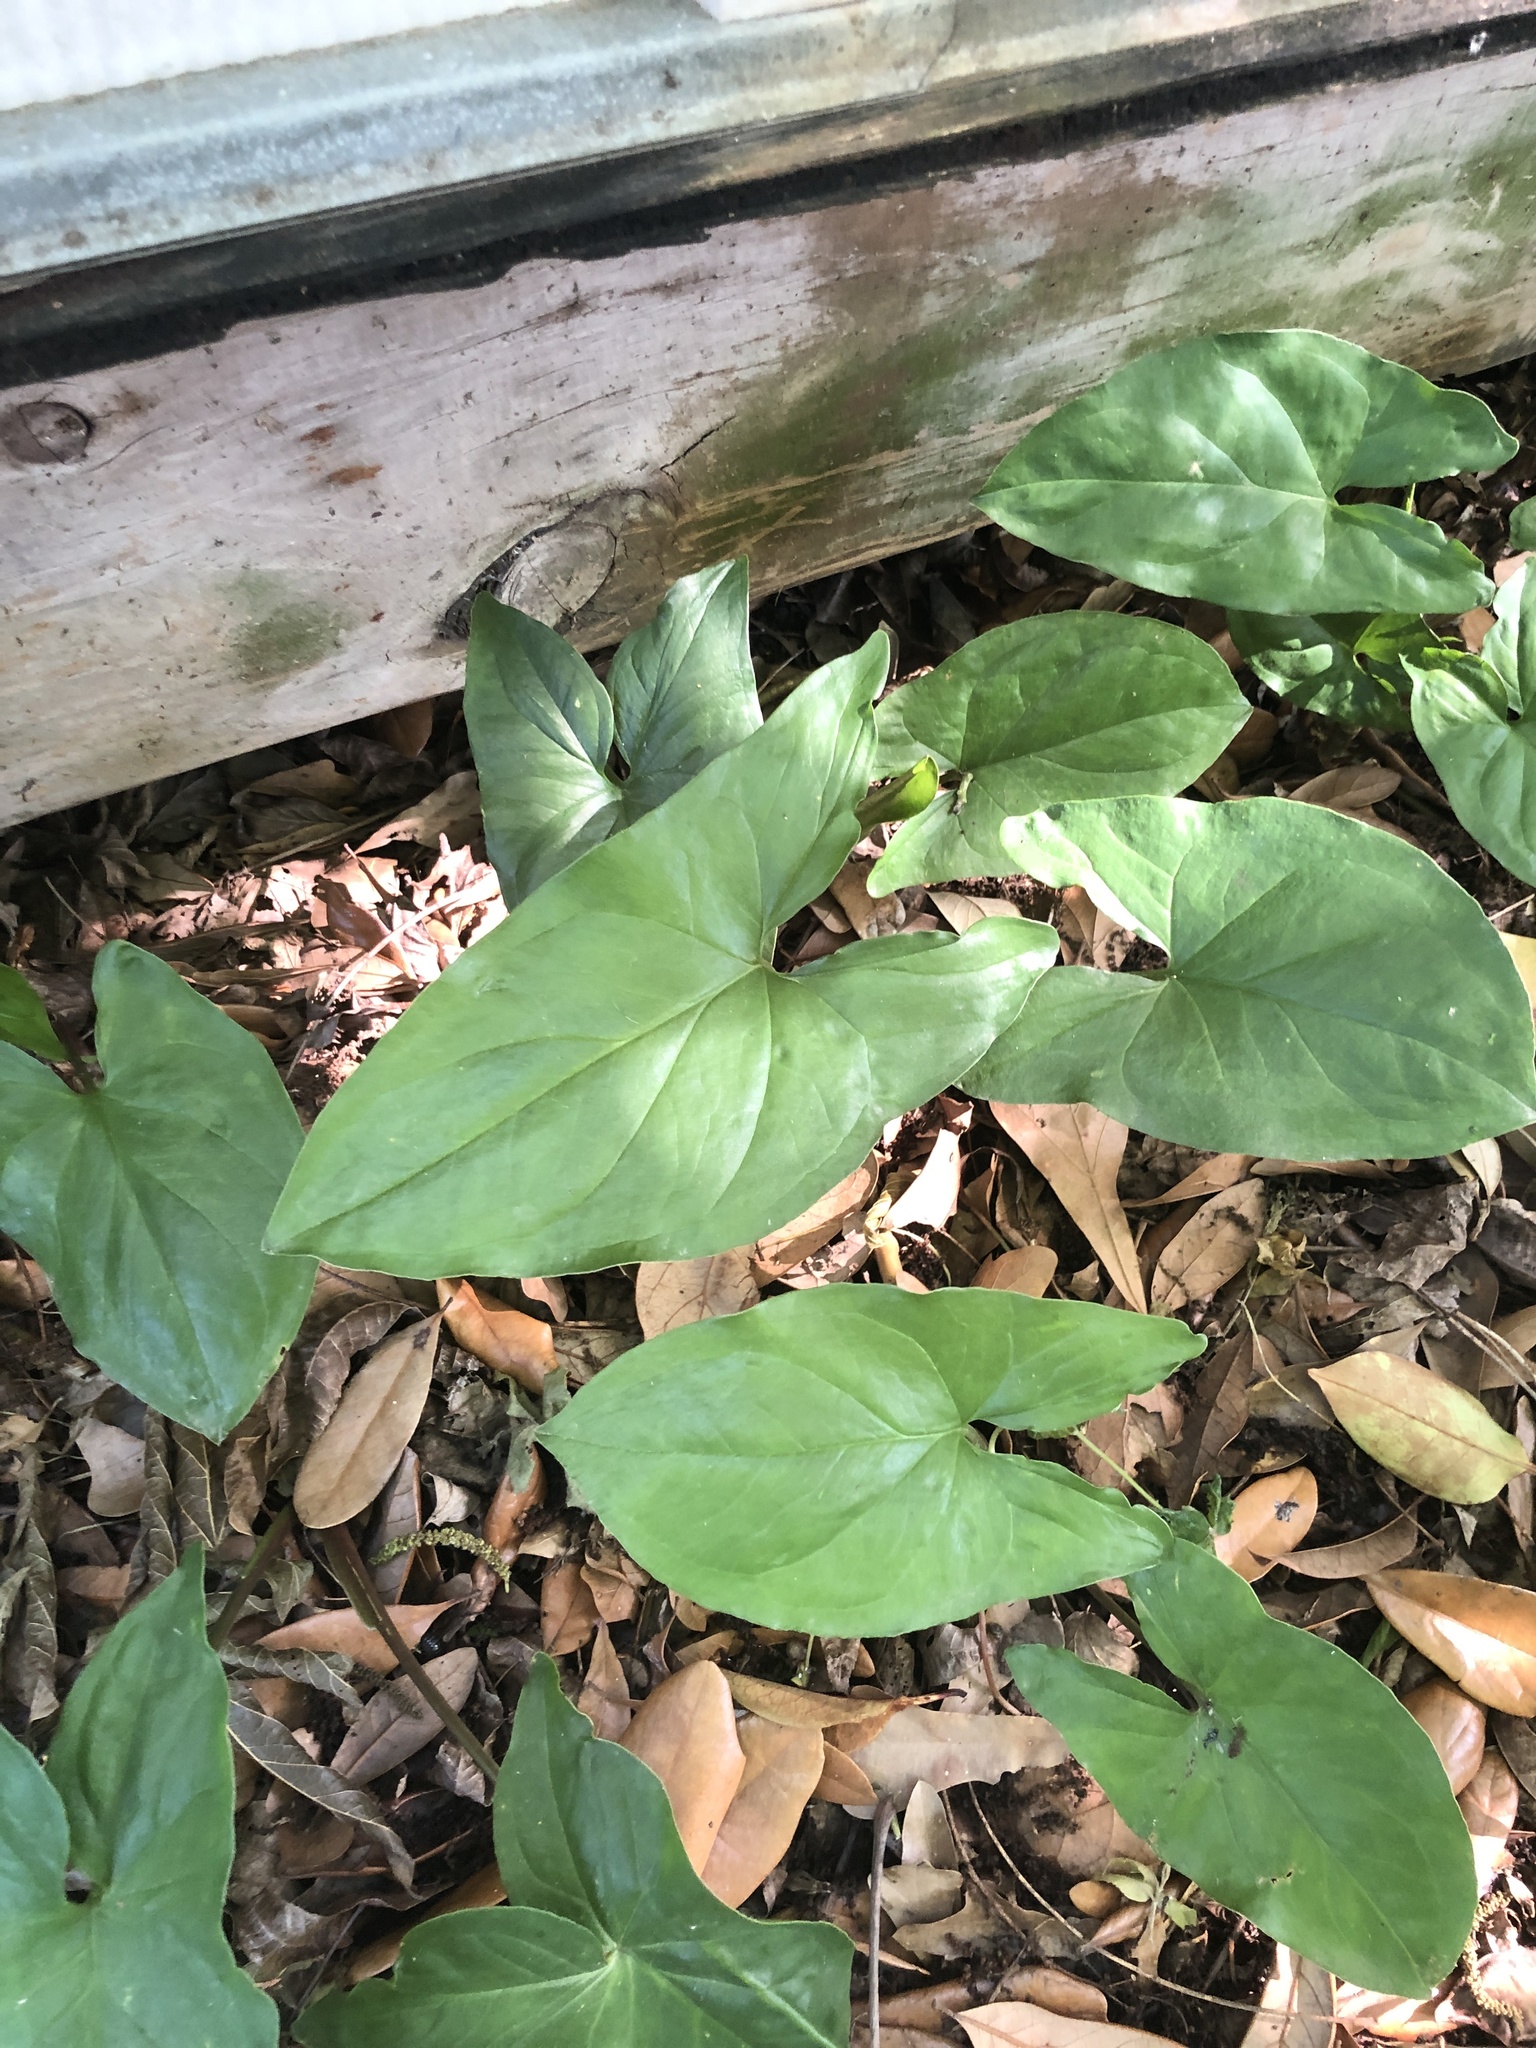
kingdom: Plantae
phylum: Tracheophyta
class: Liliopsida
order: Alismatales
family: Araceae
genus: Syngonium
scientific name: Syngonium podophyllum
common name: American evergreen
